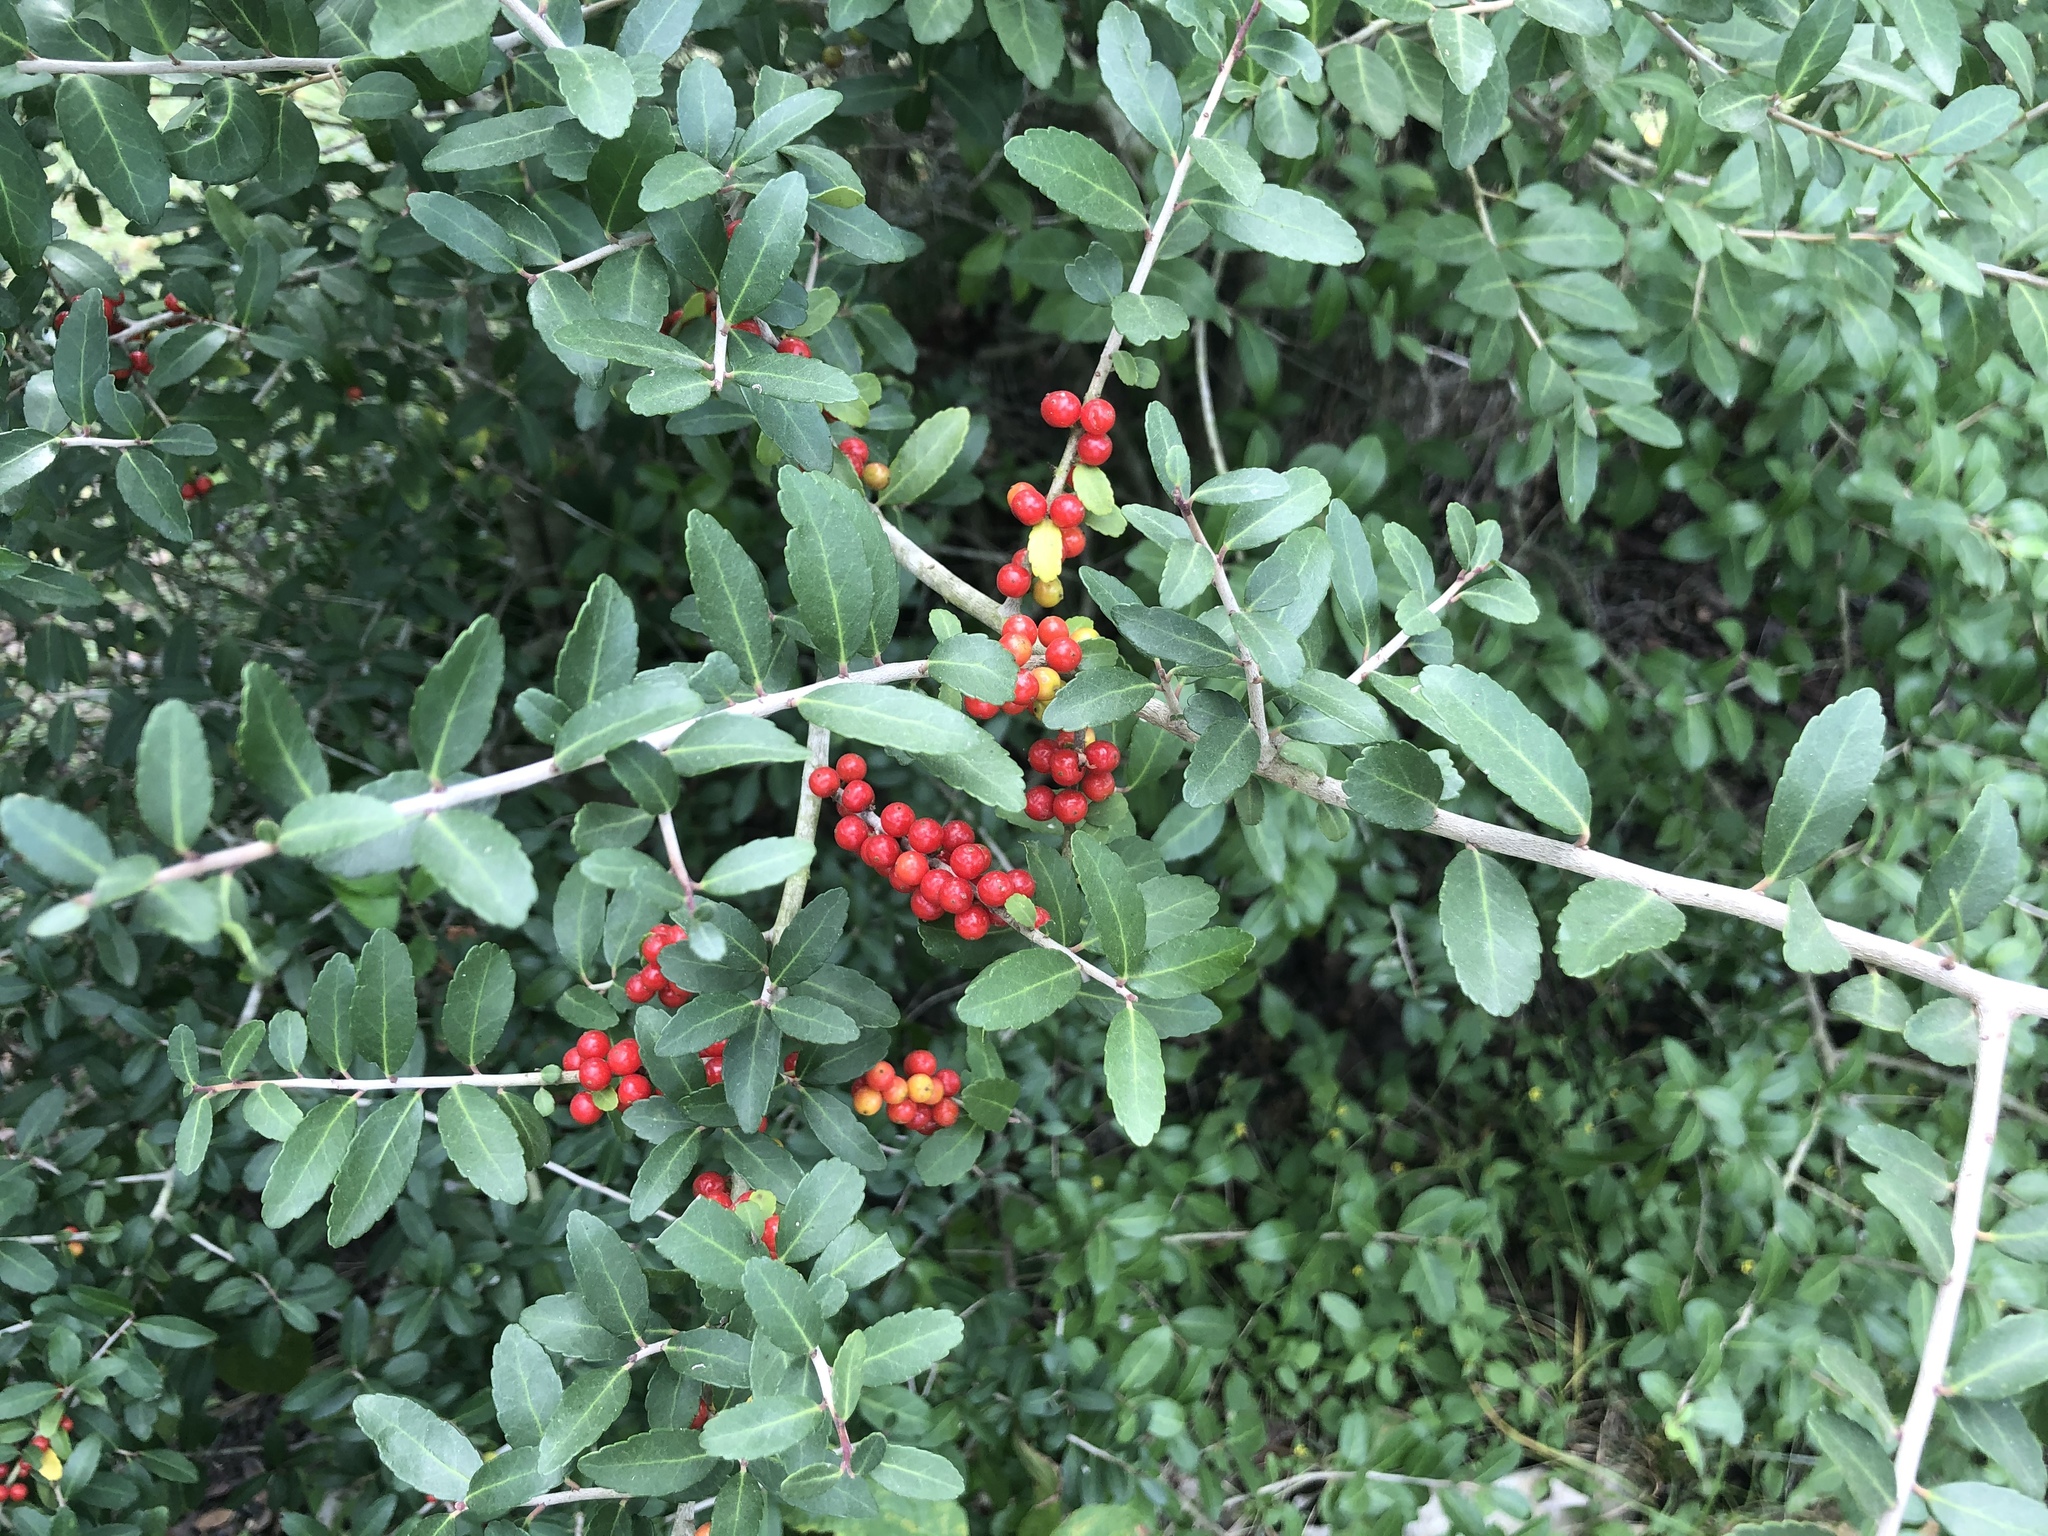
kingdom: Plantae
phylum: Tracheophyta
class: Magnoliopsida
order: Aquifoliales
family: Aquifoliaceae
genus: Ilex
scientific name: Ilex vomitoria
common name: Yaupon holly
